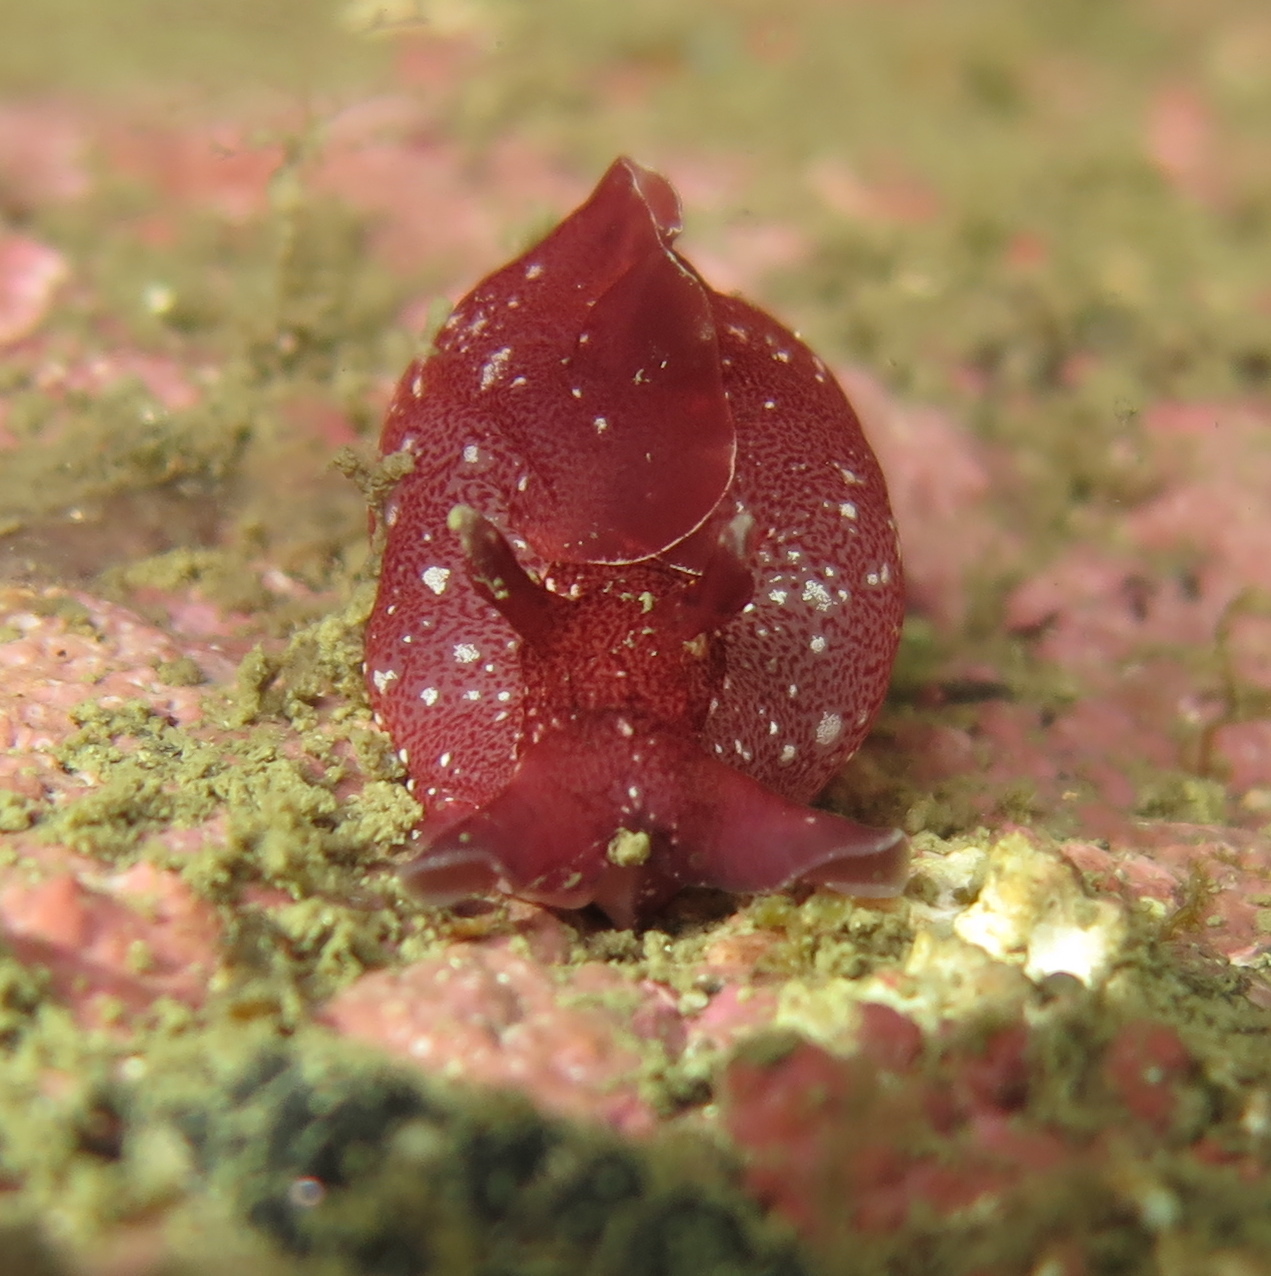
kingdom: Animalia
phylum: Mollusca
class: Gastropoda
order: Aplysiida
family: Aplysiidae
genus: Aplysia
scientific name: Aplysia punctata
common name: Common sea hare
